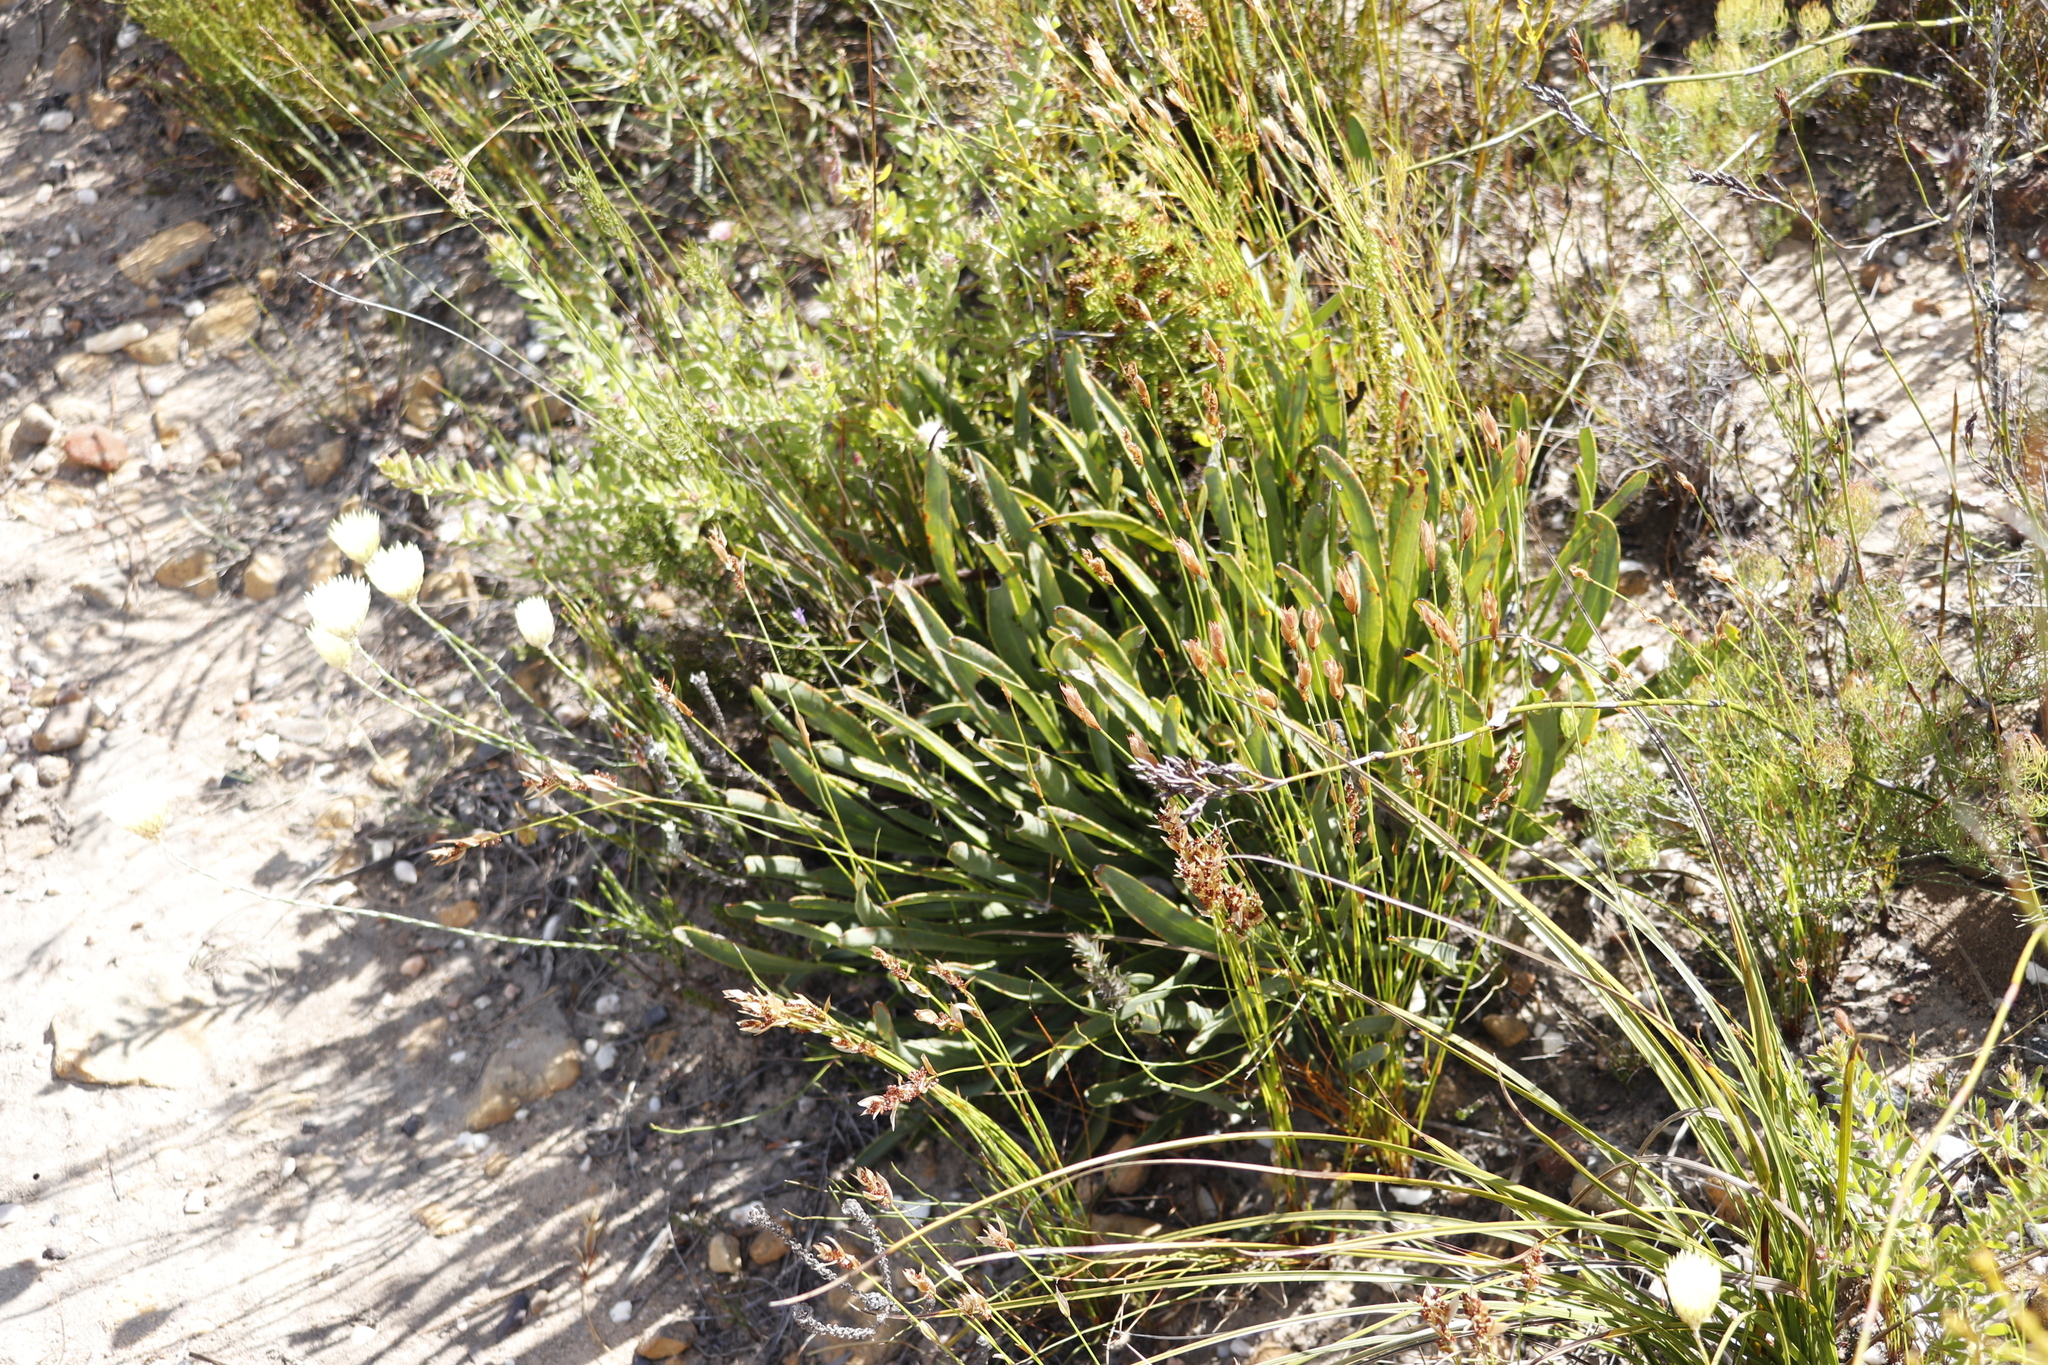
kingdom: Plantae
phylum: Tracheophyta
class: Magnoliopsida
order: Proteales
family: Proteaceae
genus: Protea
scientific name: Protea scabra
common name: Sandpaper-leaf sugarbush
